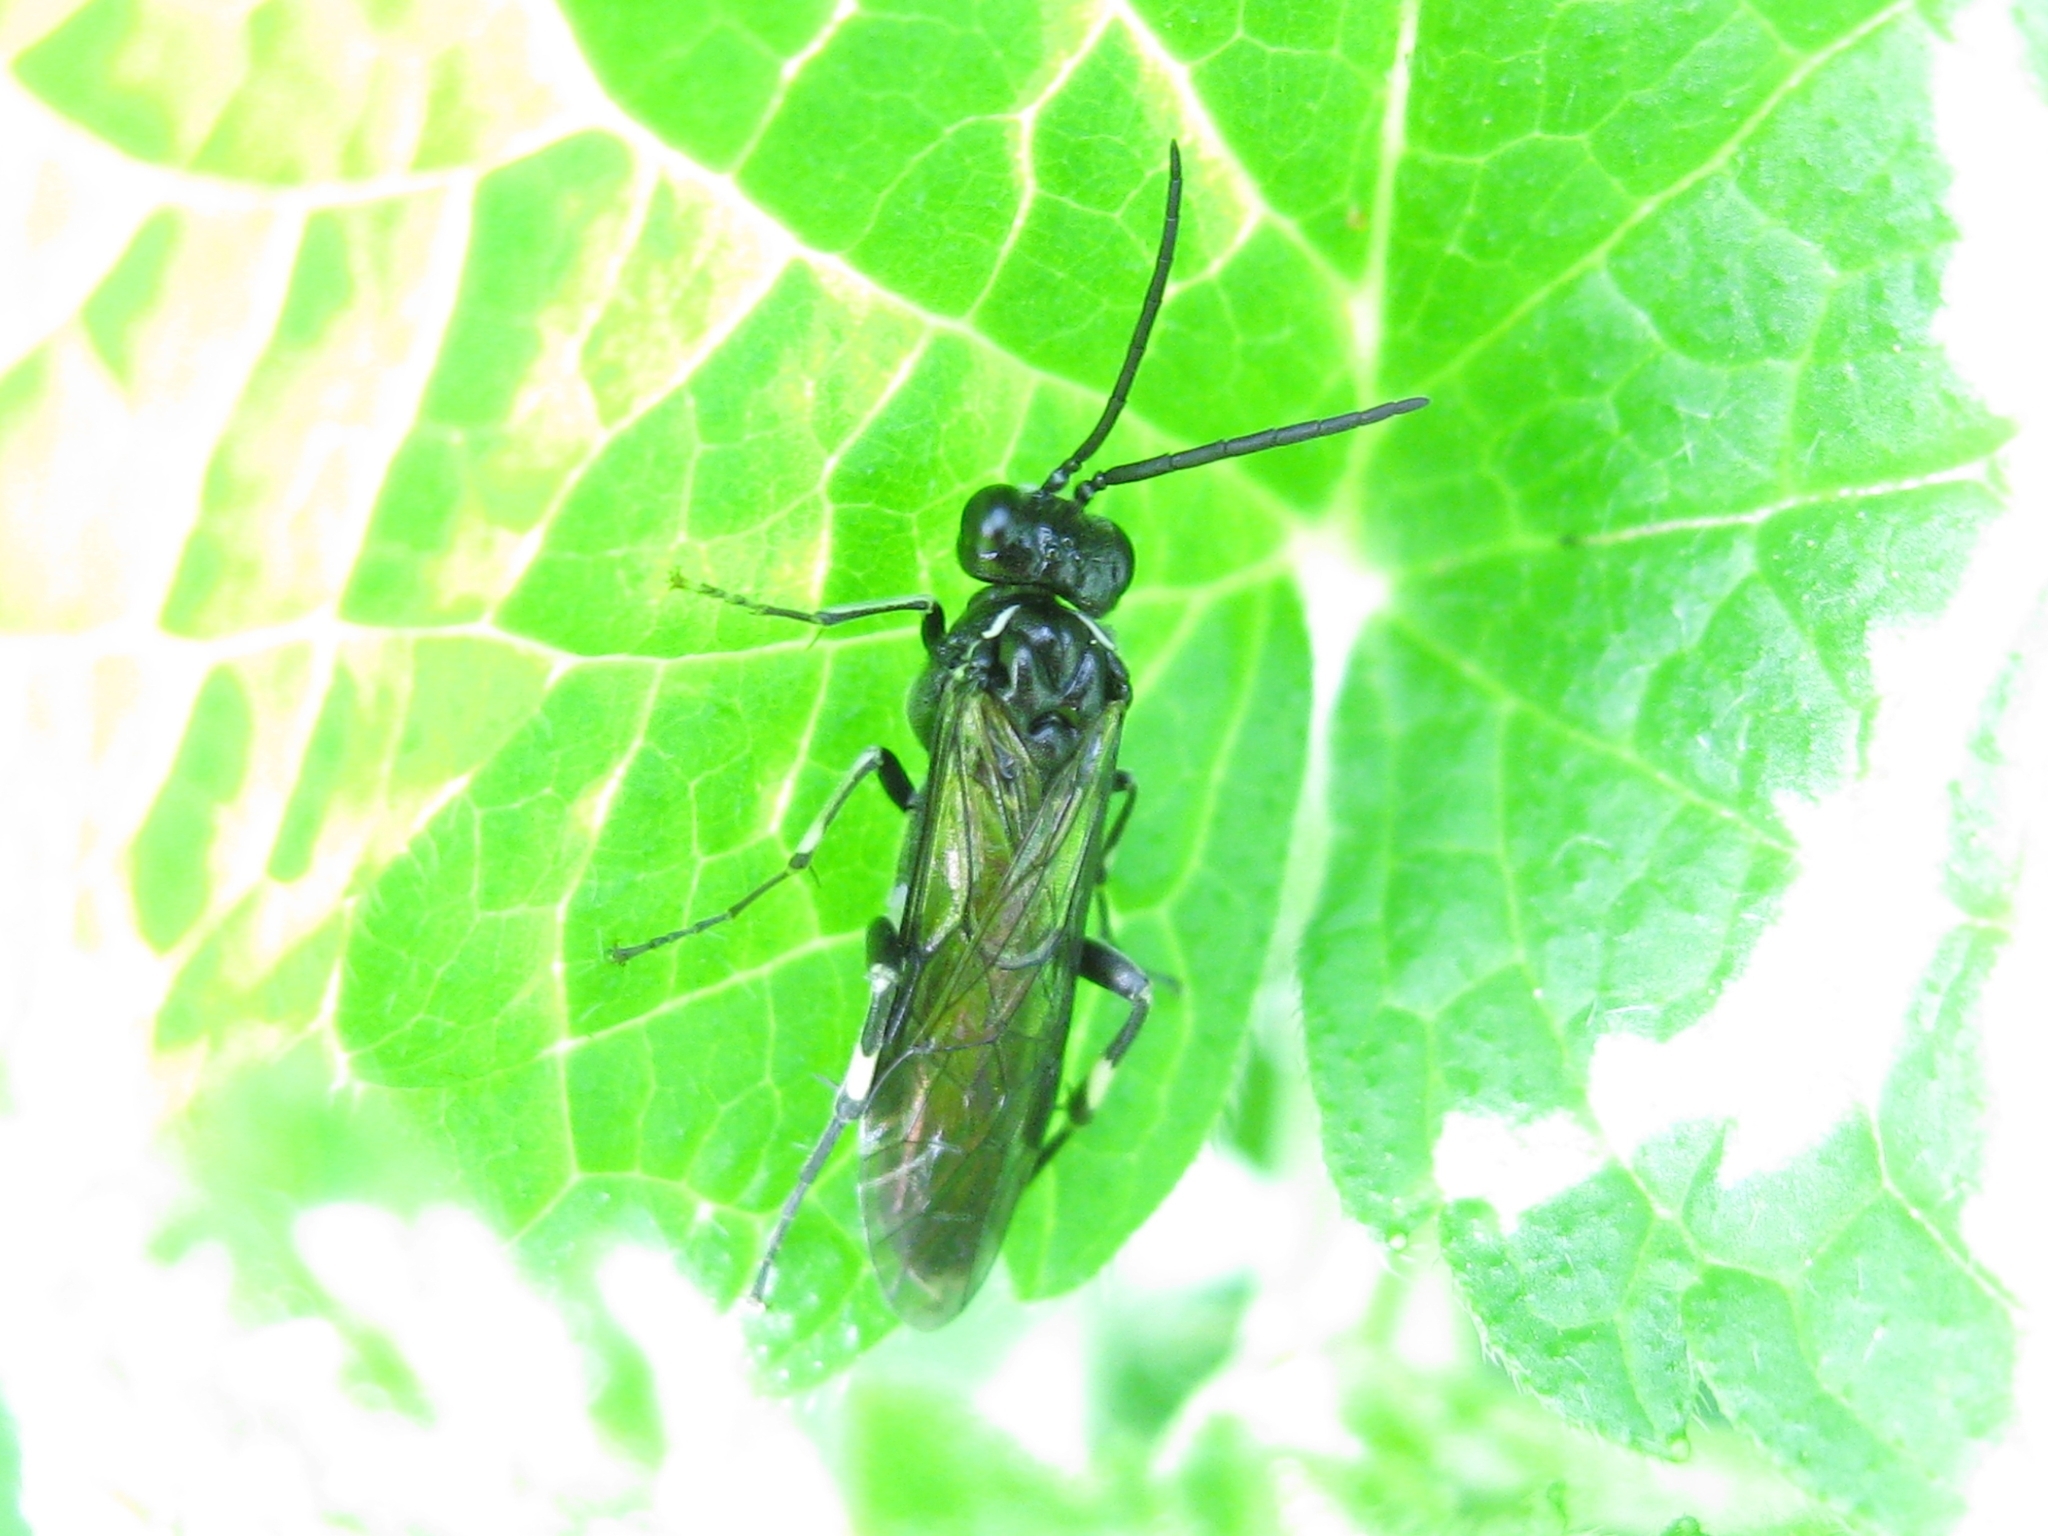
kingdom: Animalia
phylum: Arthropoda
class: Insecta
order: Hymenoptera
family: Tenthredinidae
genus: Macrophya
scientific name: Macrophya
